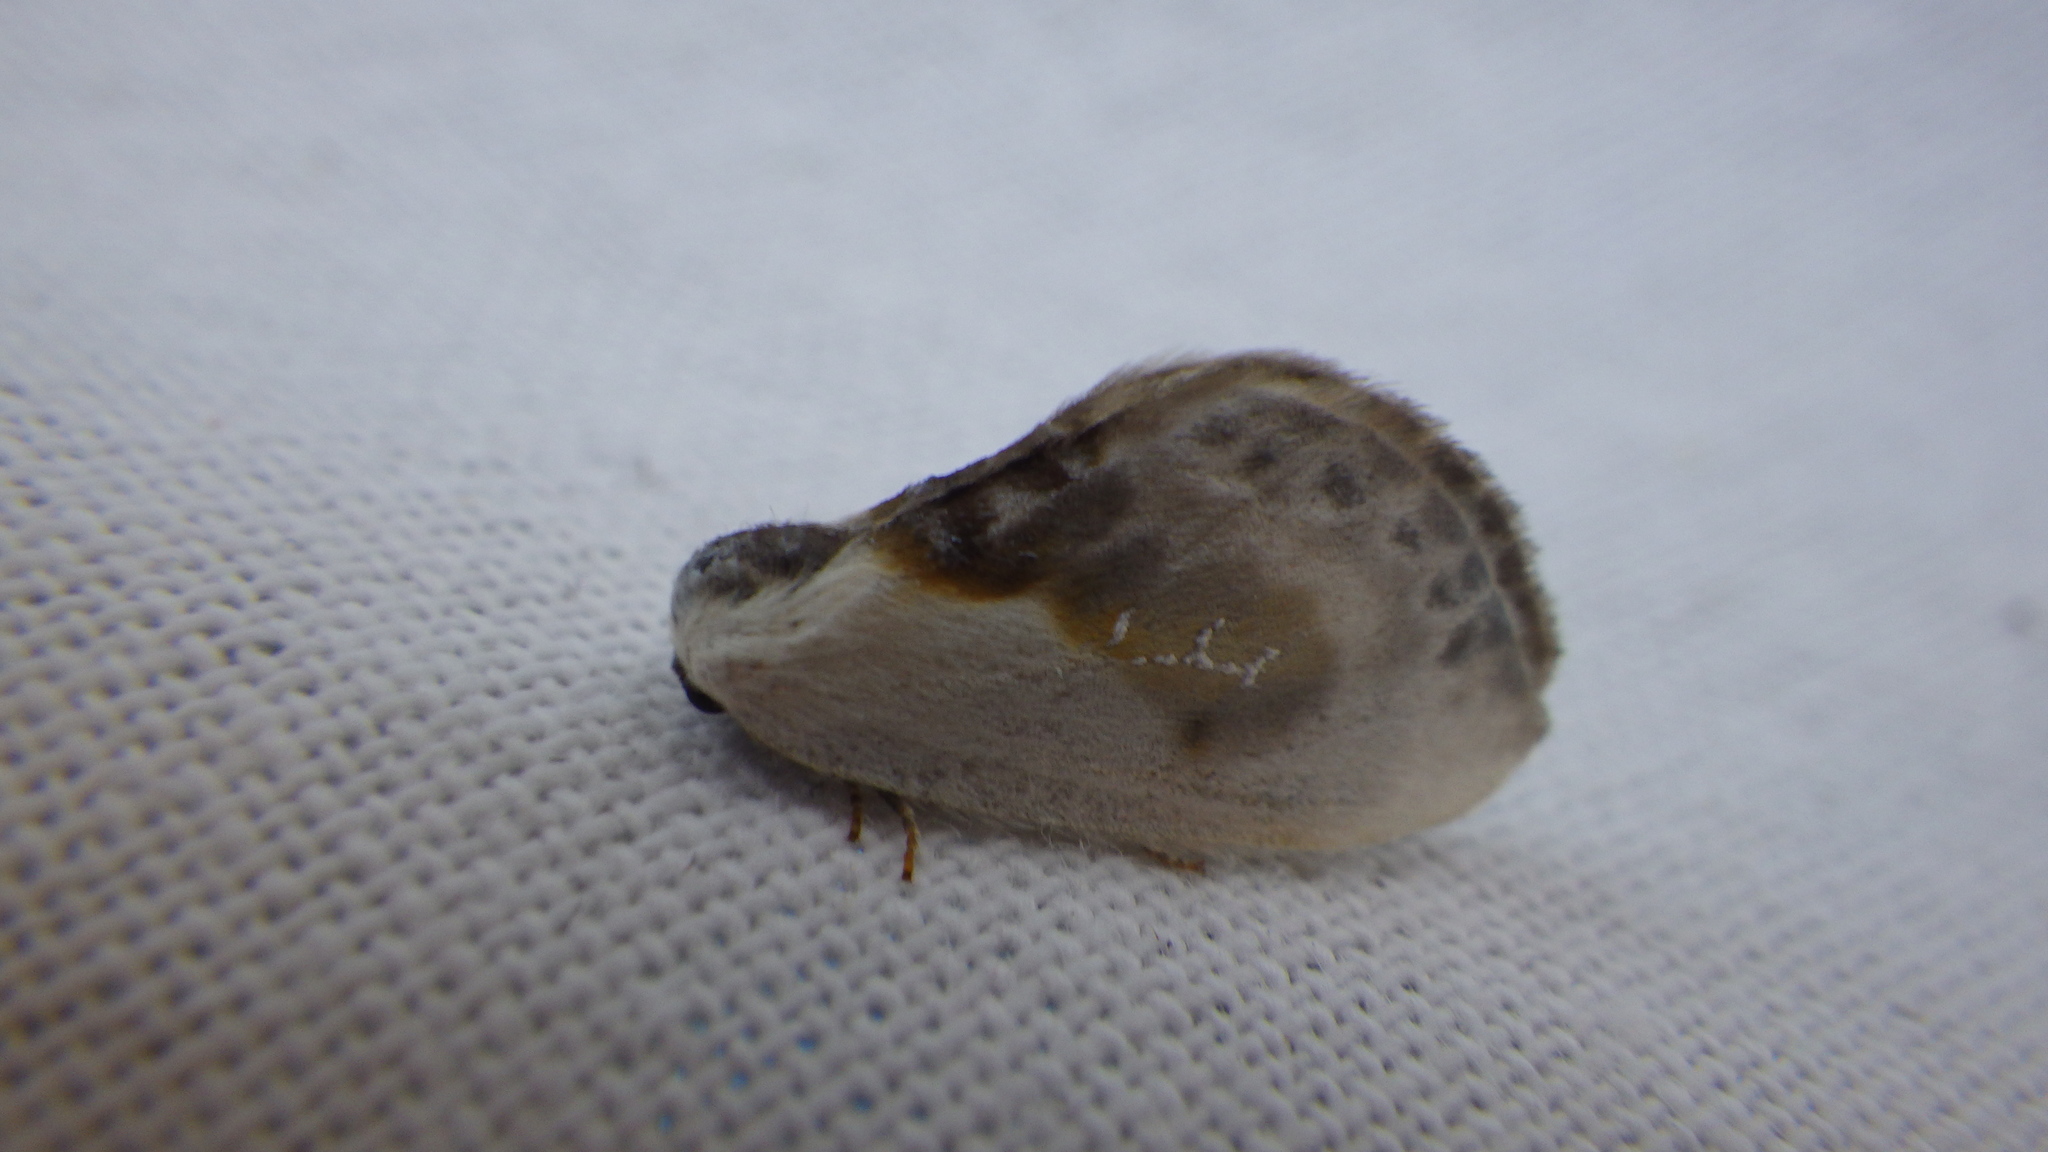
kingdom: Animalia
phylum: Arthropoda
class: Insecta
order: Lepidoptera
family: Drepanidae
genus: Cilix
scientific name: Cilix glaucata
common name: Chinese character
